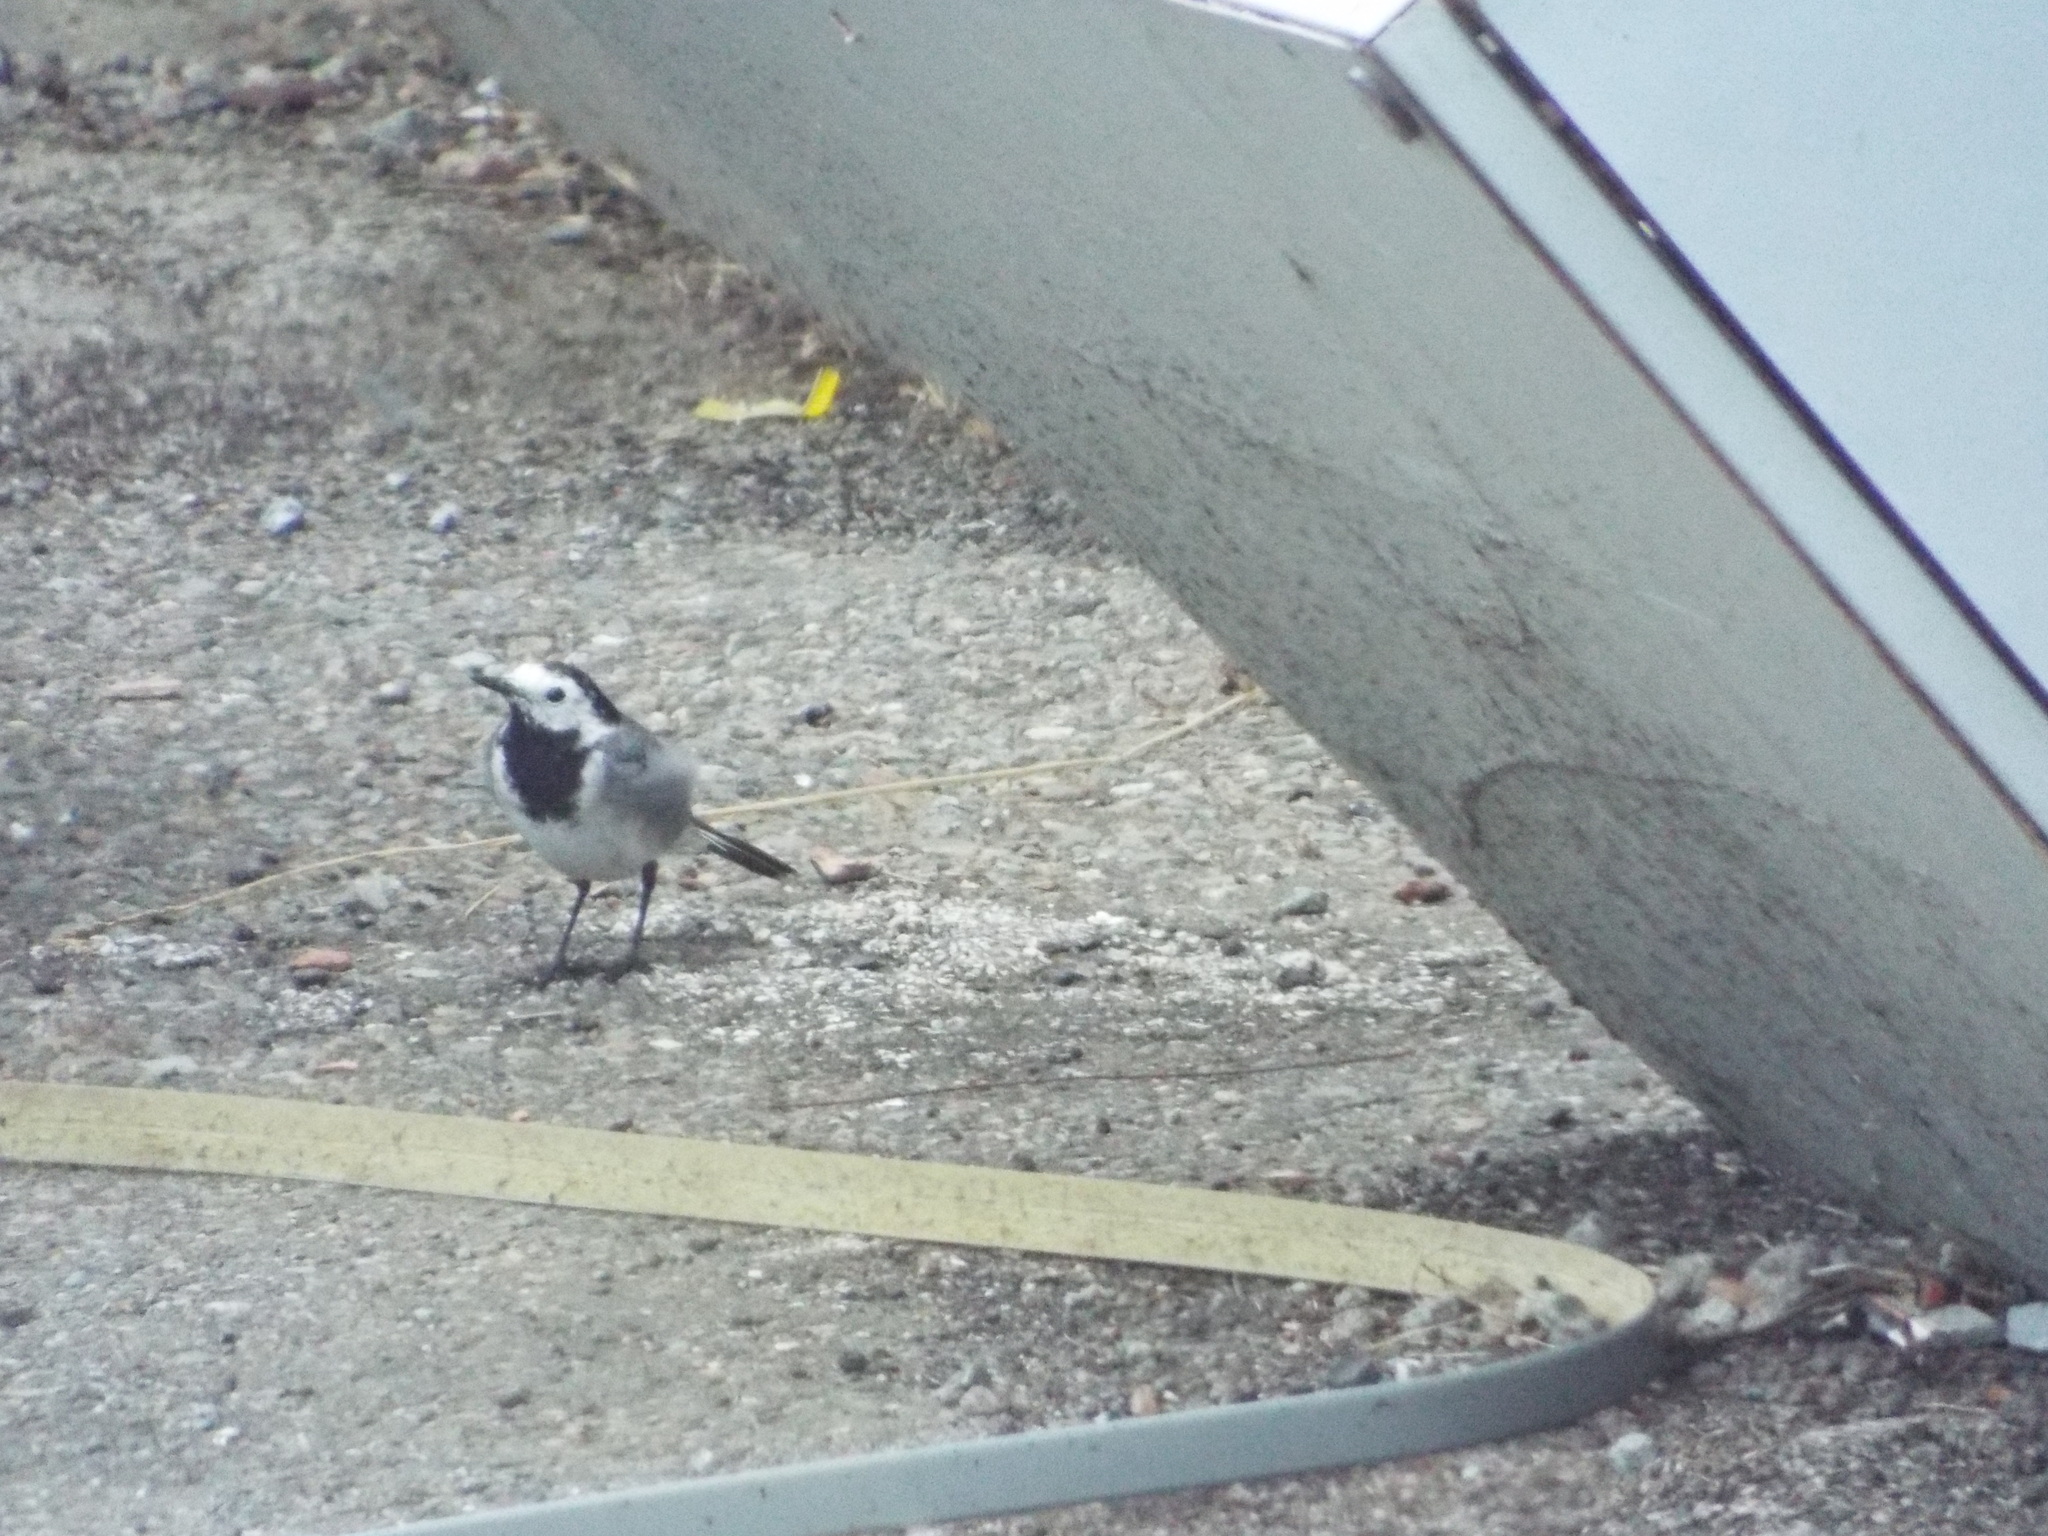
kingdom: Animalia
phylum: Chordata
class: Aves
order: Passeriformes
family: Motacillidae
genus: Motacilla
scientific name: Motacilla alba
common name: White wagtail
